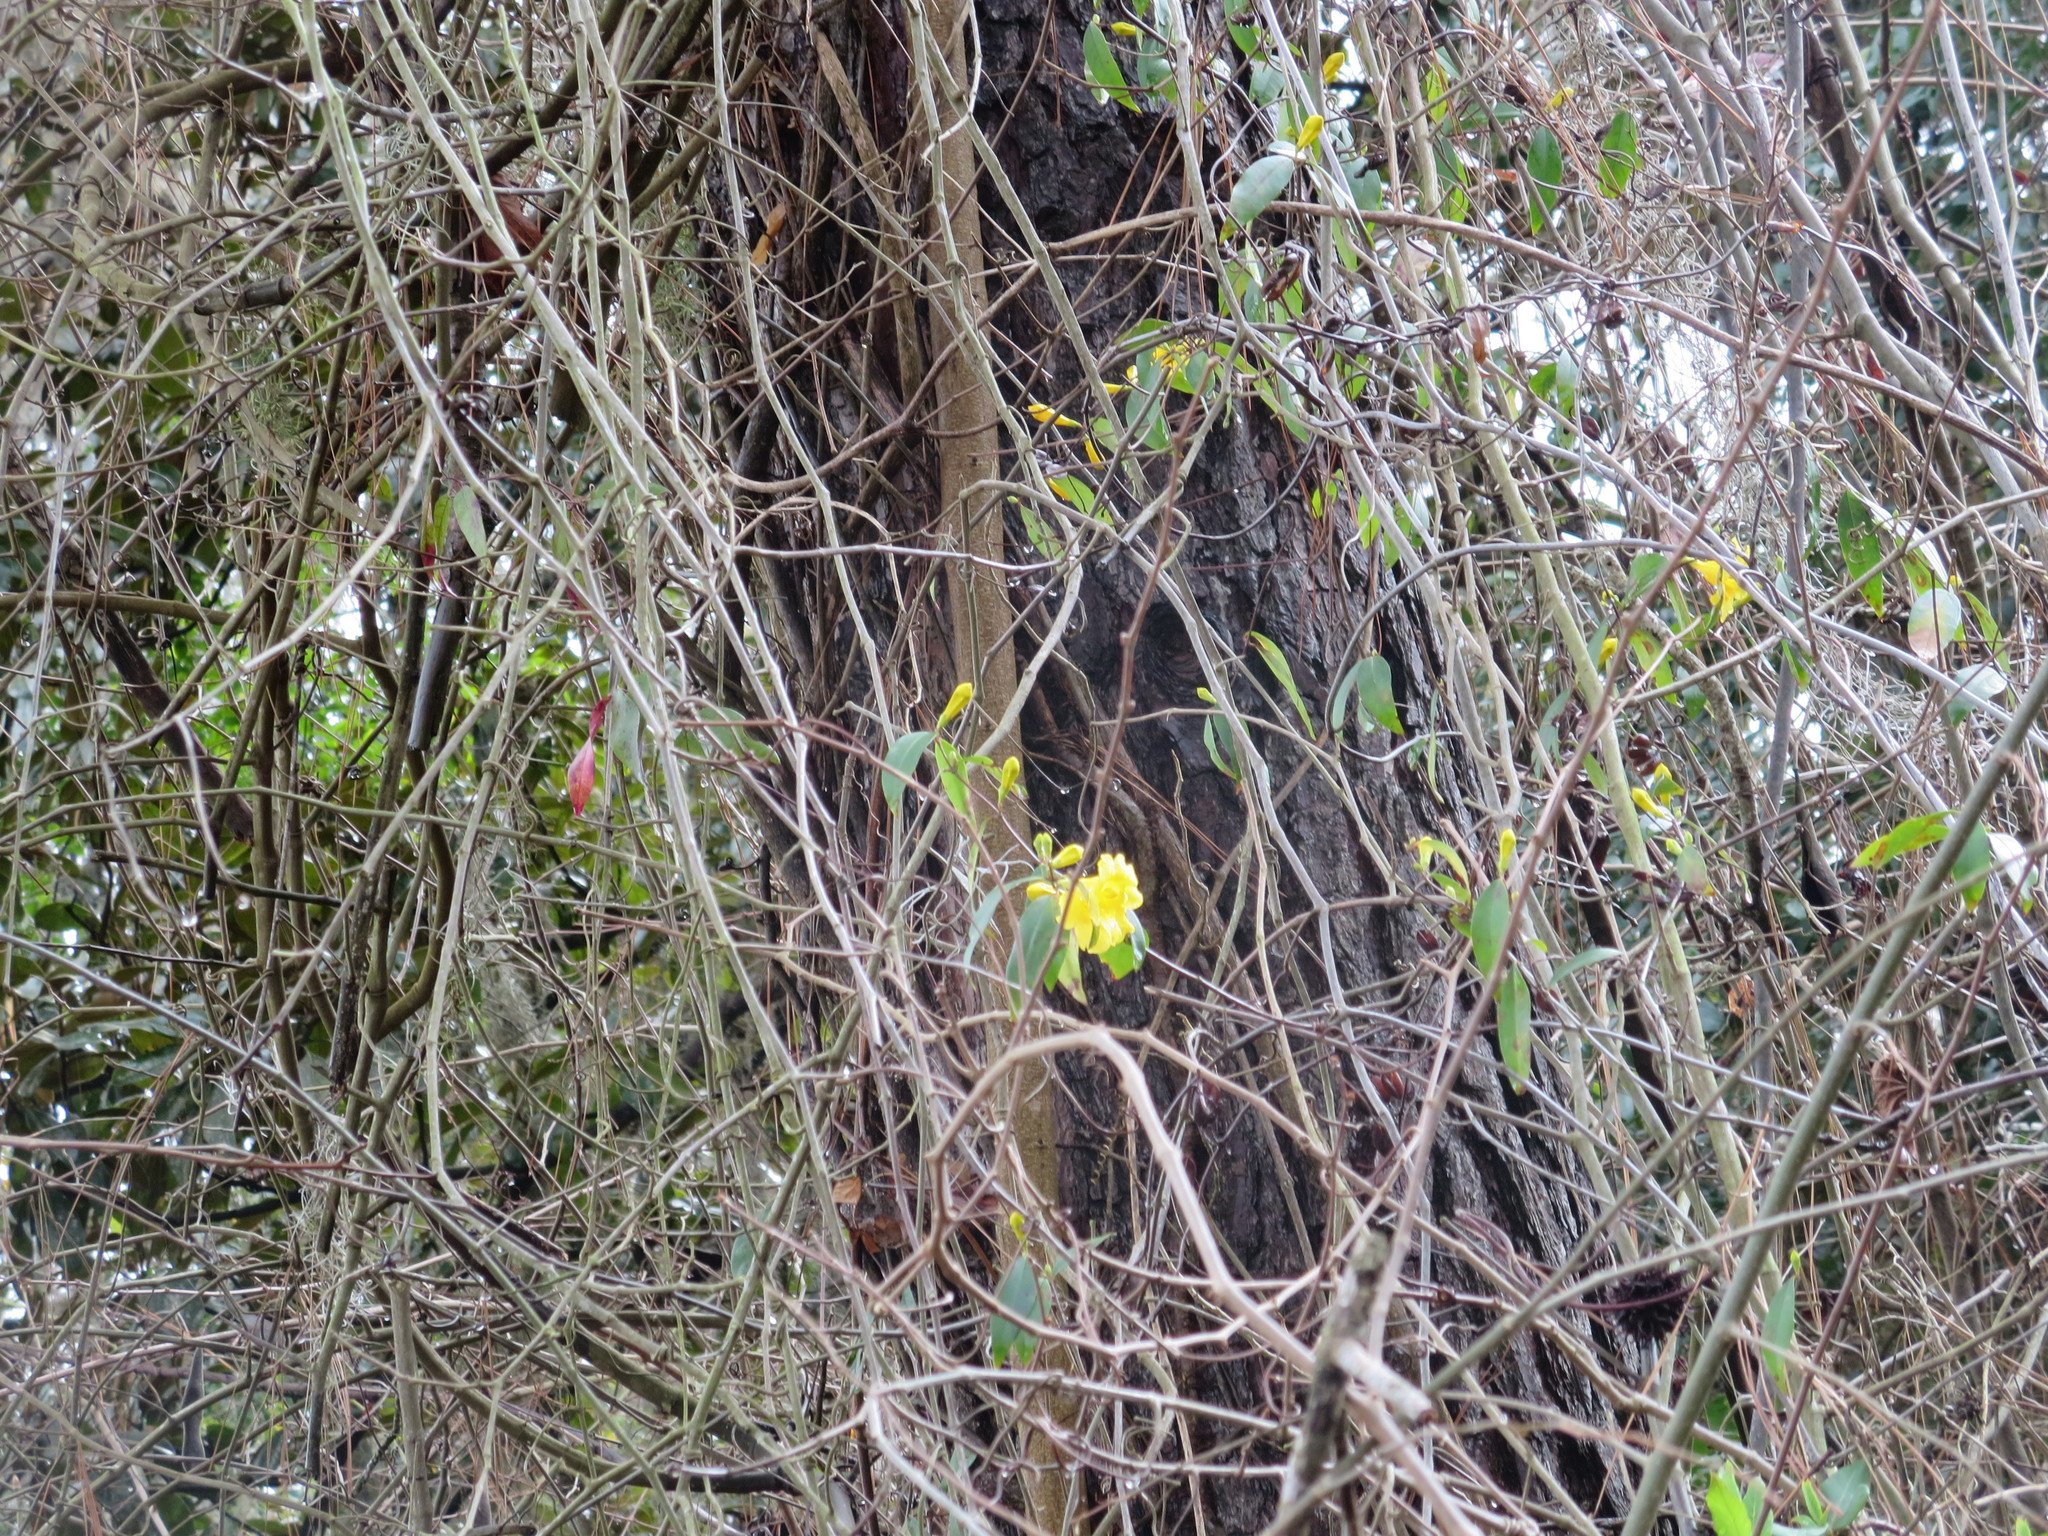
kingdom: Plantae
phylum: Tracheophyta
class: Magnoliopsida
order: Gentianales
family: Gelsemiaceae
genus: Gelsemium
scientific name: Gelsemium sempervirens
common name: Carolina-jasmine
